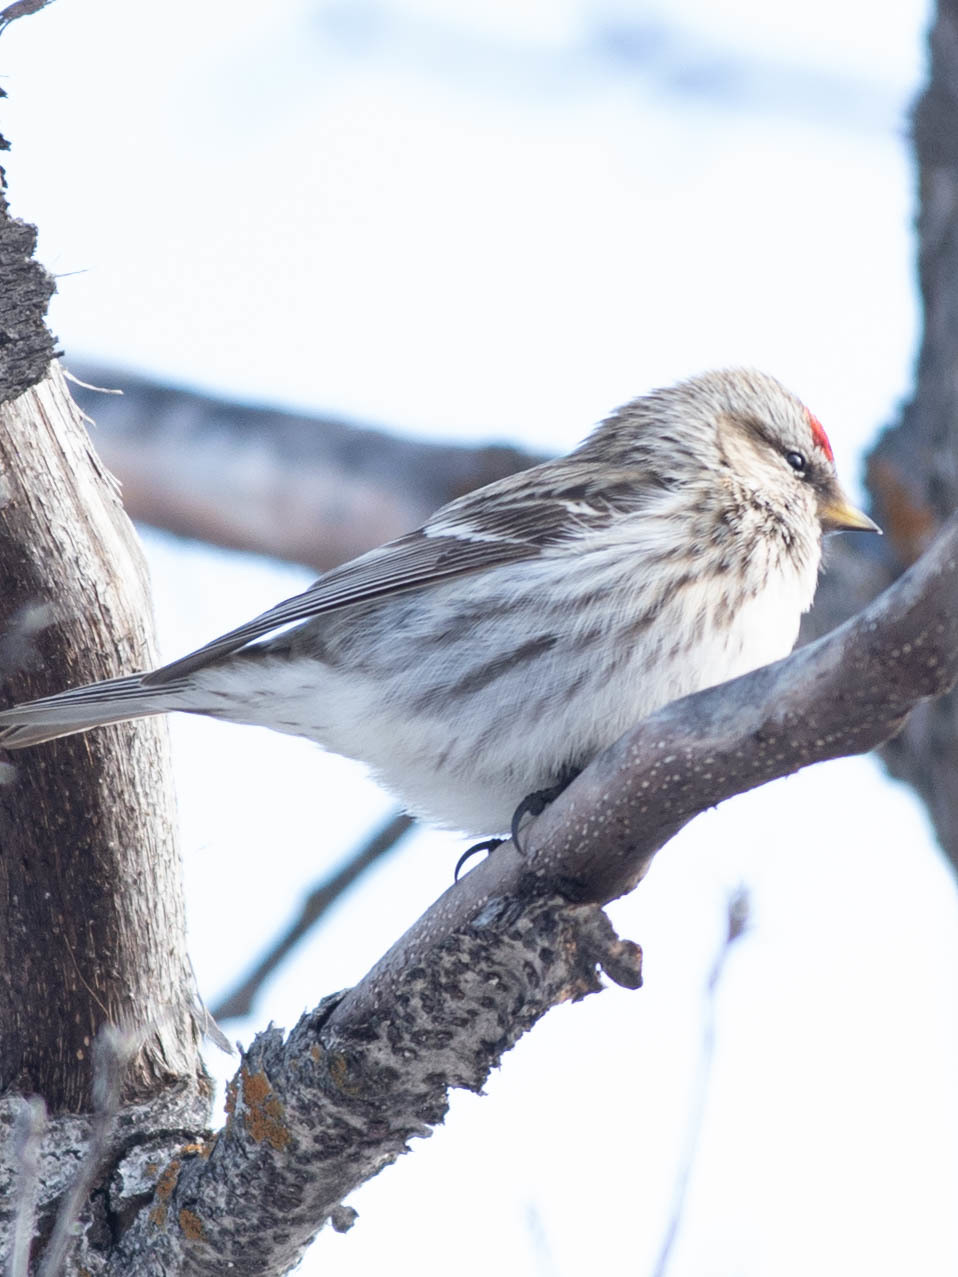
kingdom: Animalia
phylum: Chordata
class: Aves
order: Passeriformes
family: Fringillidae
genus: Acanthis
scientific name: Acanthis flammea
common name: Common redpoll
